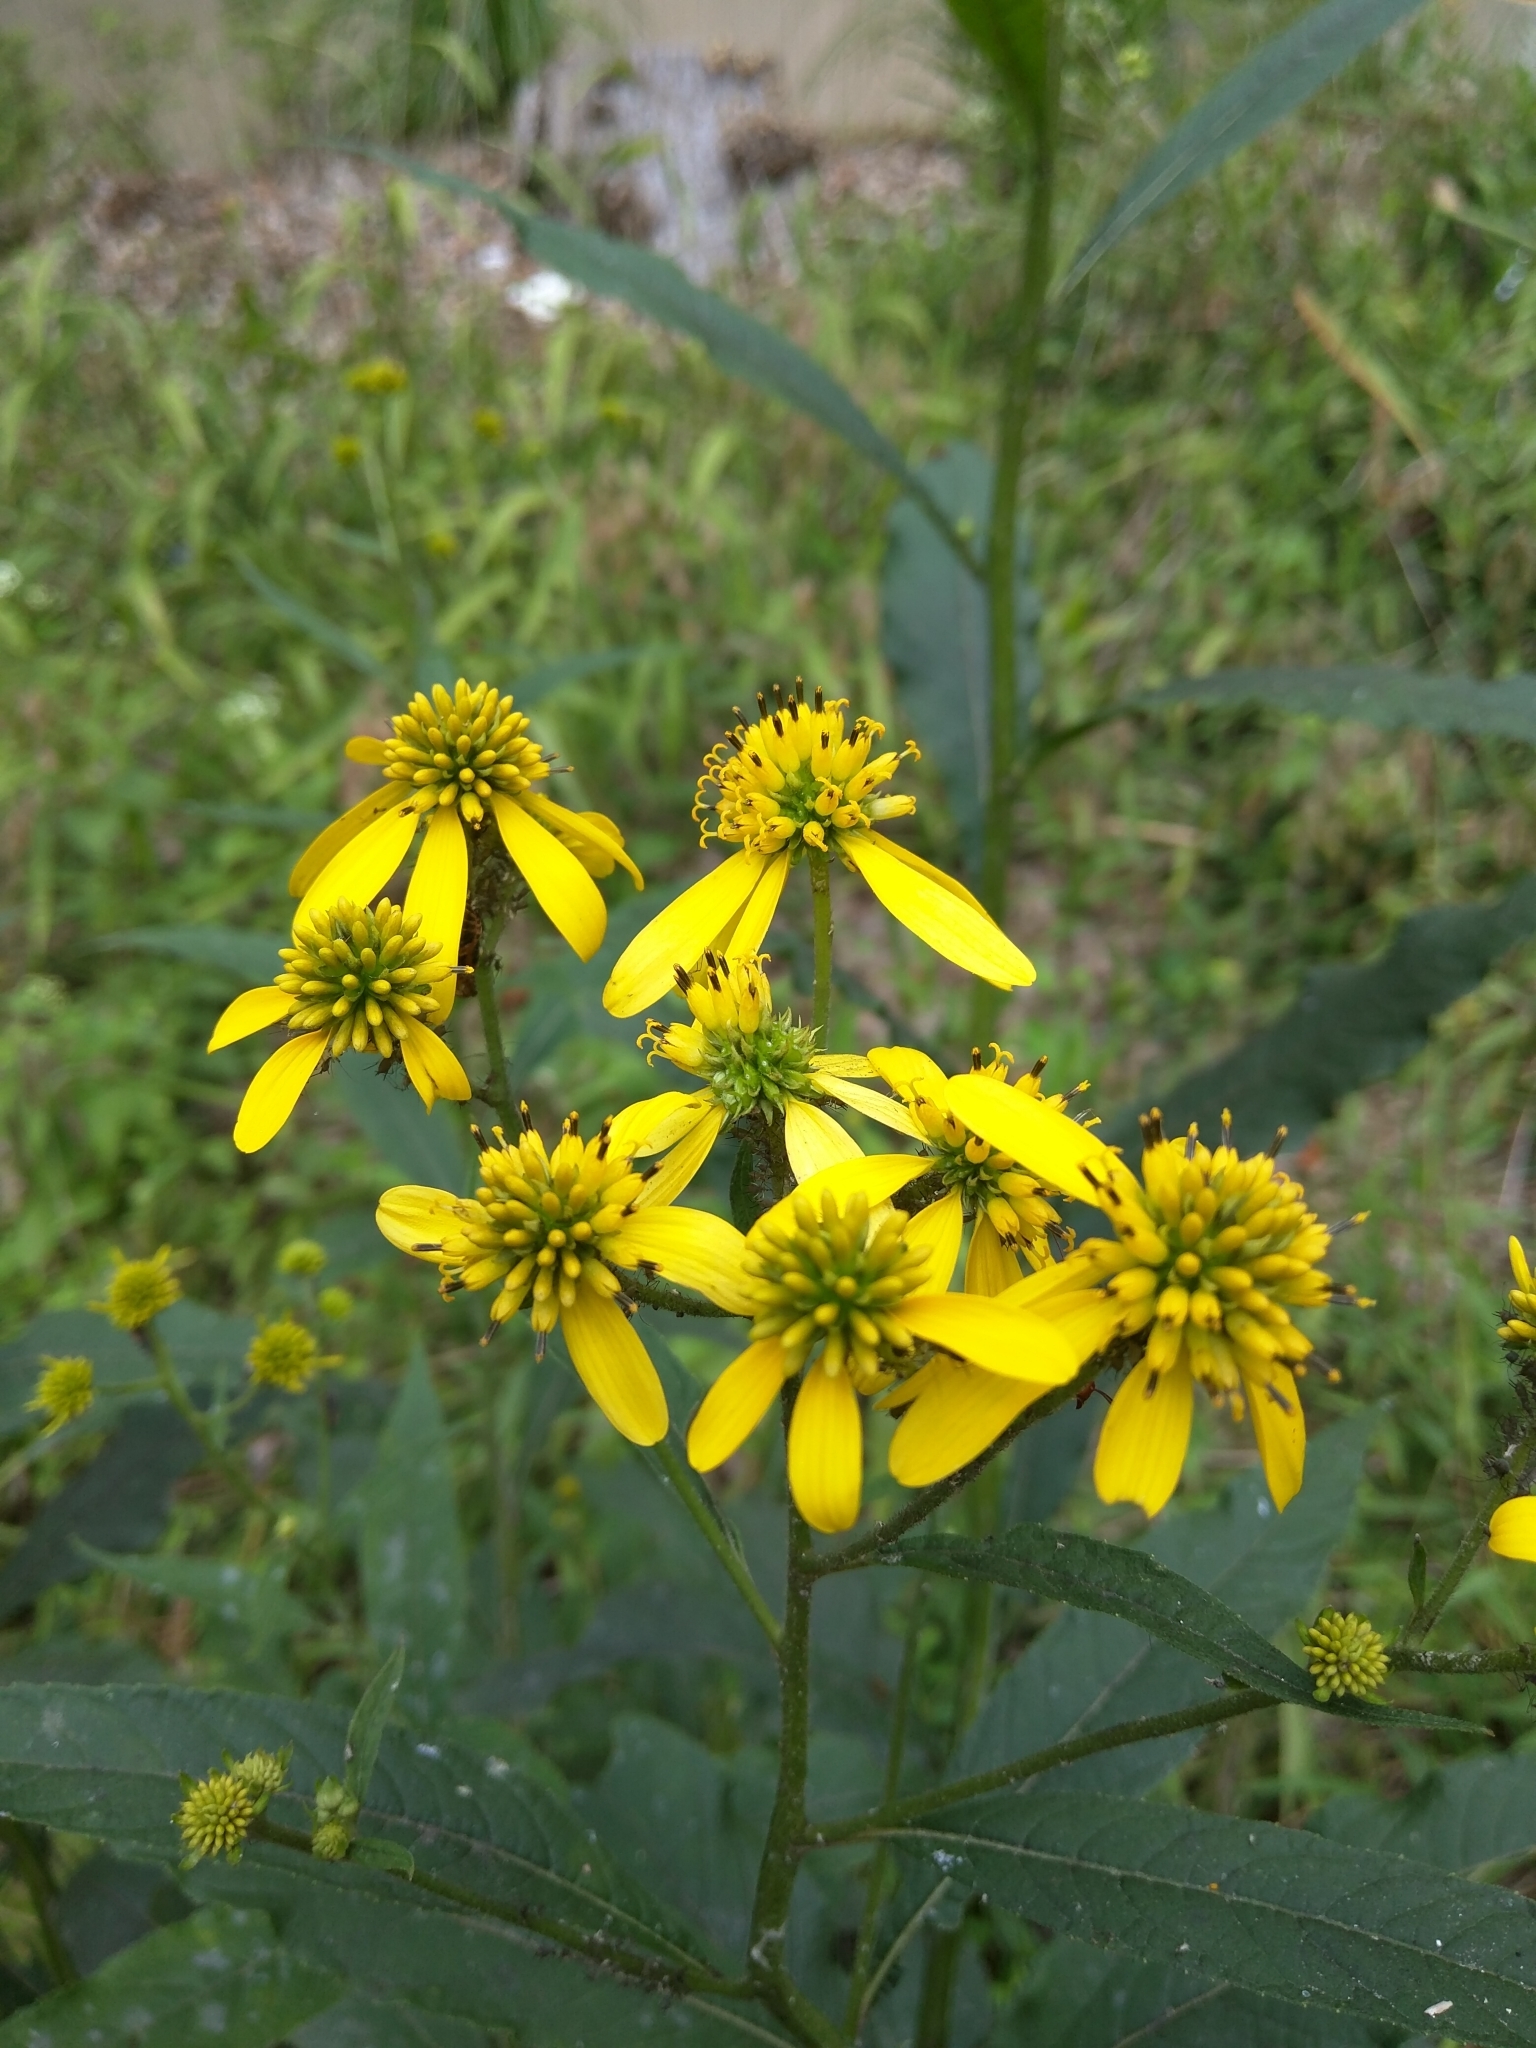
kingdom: Plantae
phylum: Tracheophyta
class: Magnoliopsida
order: Asterales
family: Asteraceae
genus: Verbesina
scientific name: Verbesina alternifolia
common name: Wingstem
